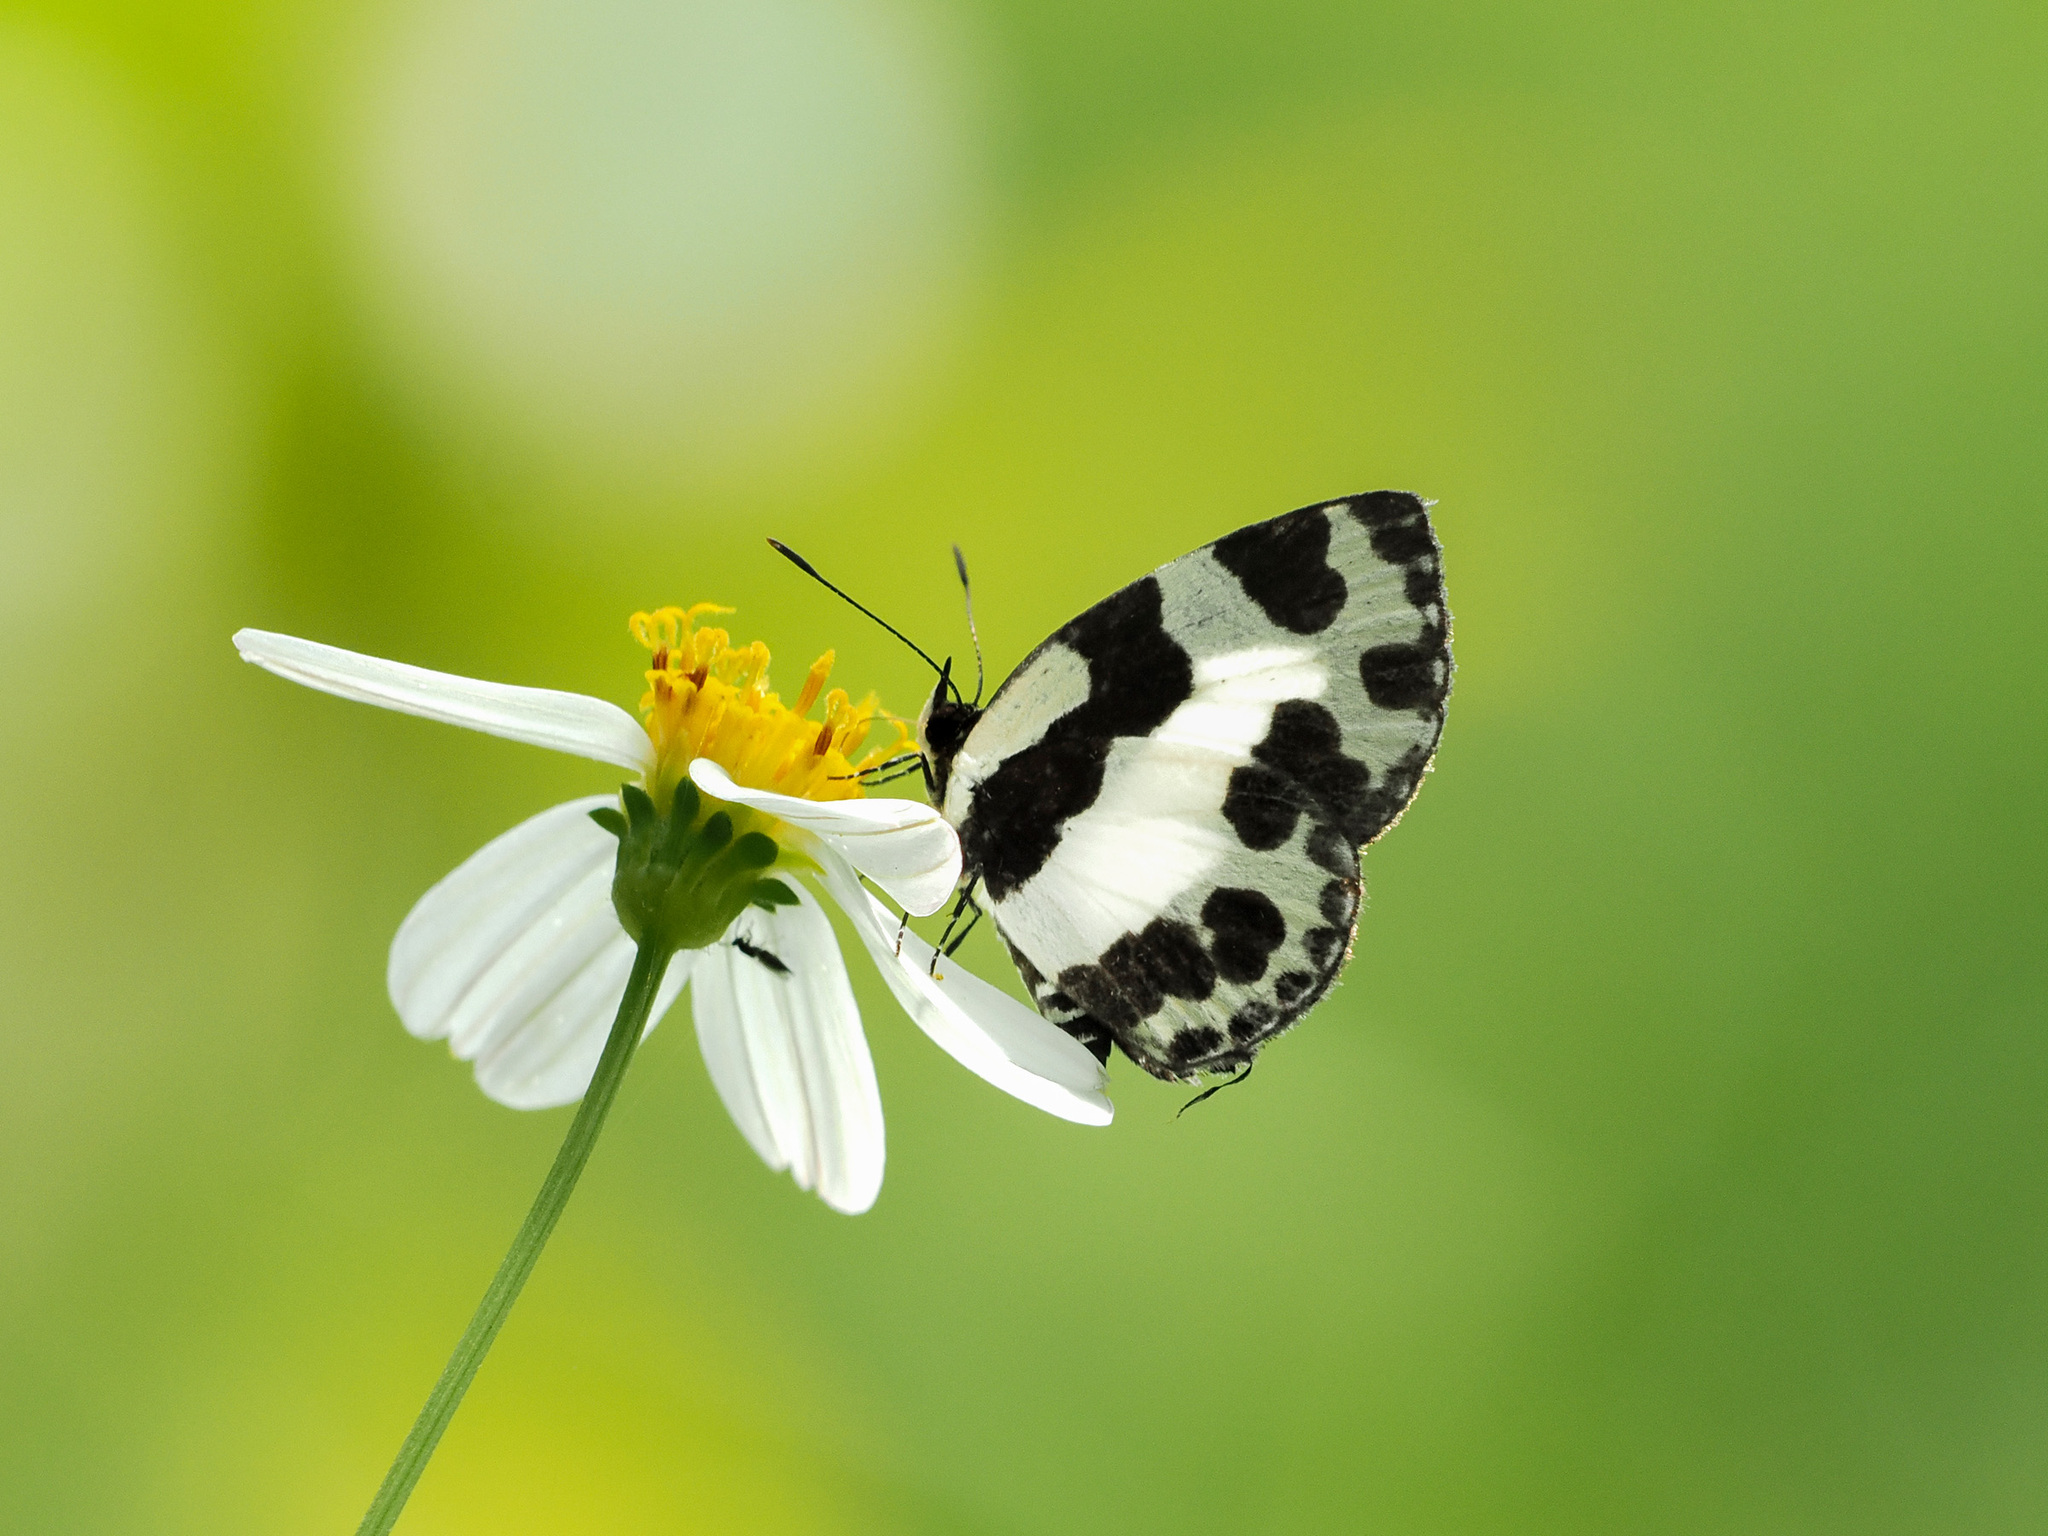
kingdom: Animalia
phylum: Arthropoda
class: Insecta
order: Lepidoptera
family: Lycaenidae
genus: Caleta
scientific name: Caleta elna
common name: Elbowed pierrot
